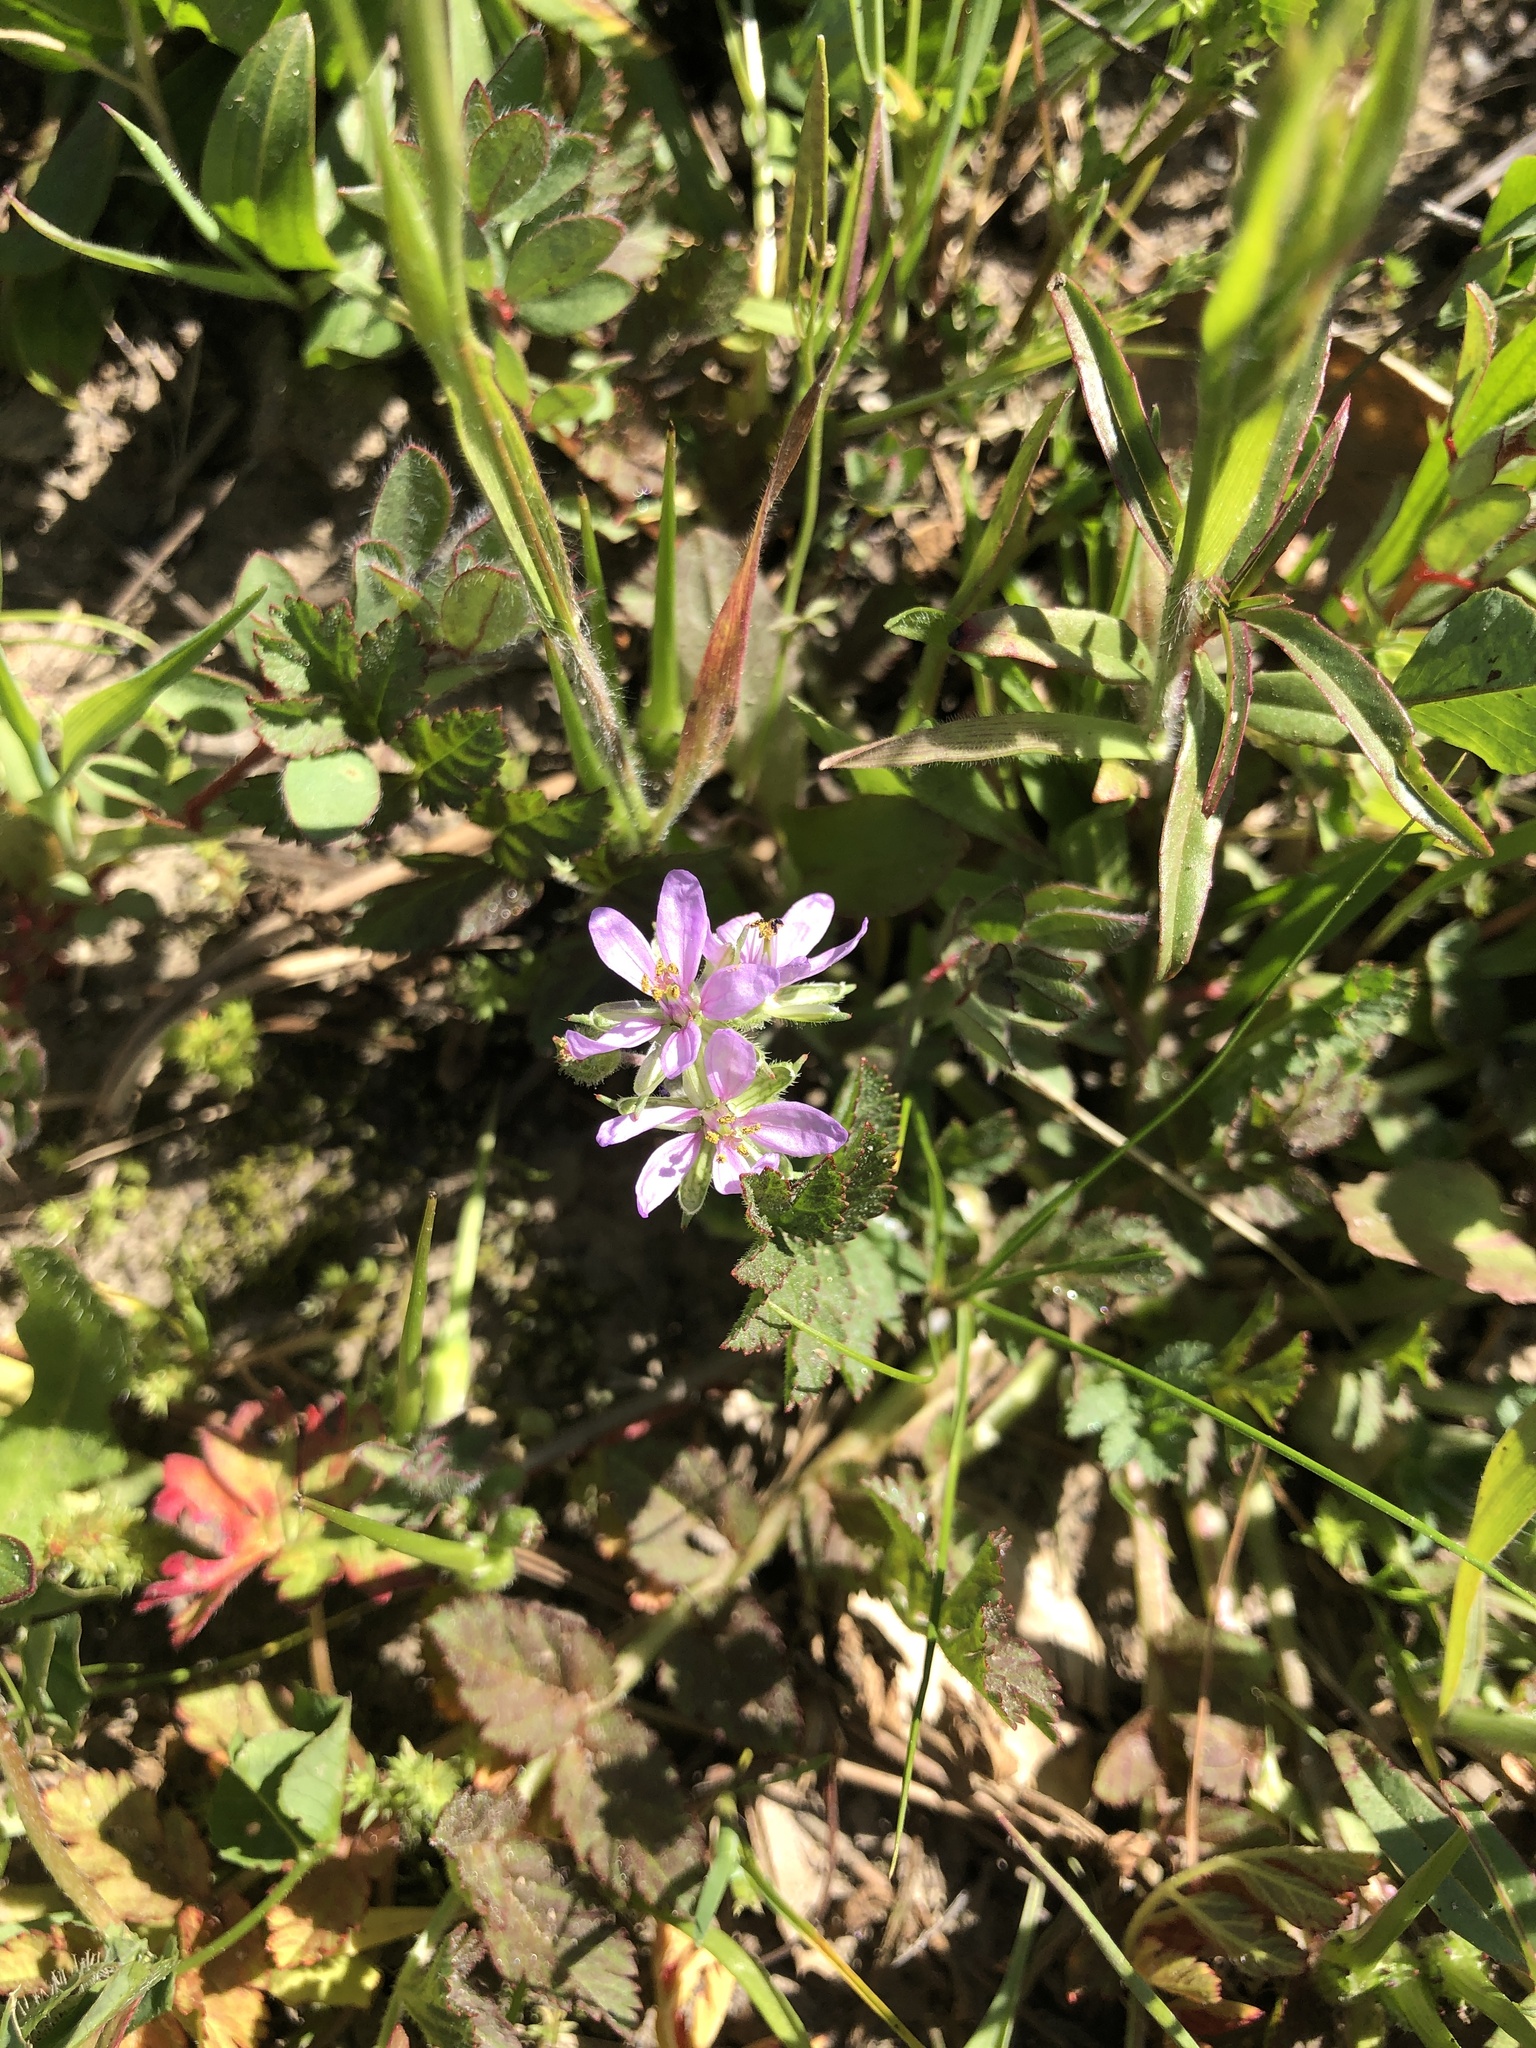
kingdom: Plantae
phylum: Tracheophyta
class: Magnoliopsida
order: Geraniales
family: Geraniaceae
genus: Erodium
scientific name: Erodium moschatum
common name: Musk stork's-bill
